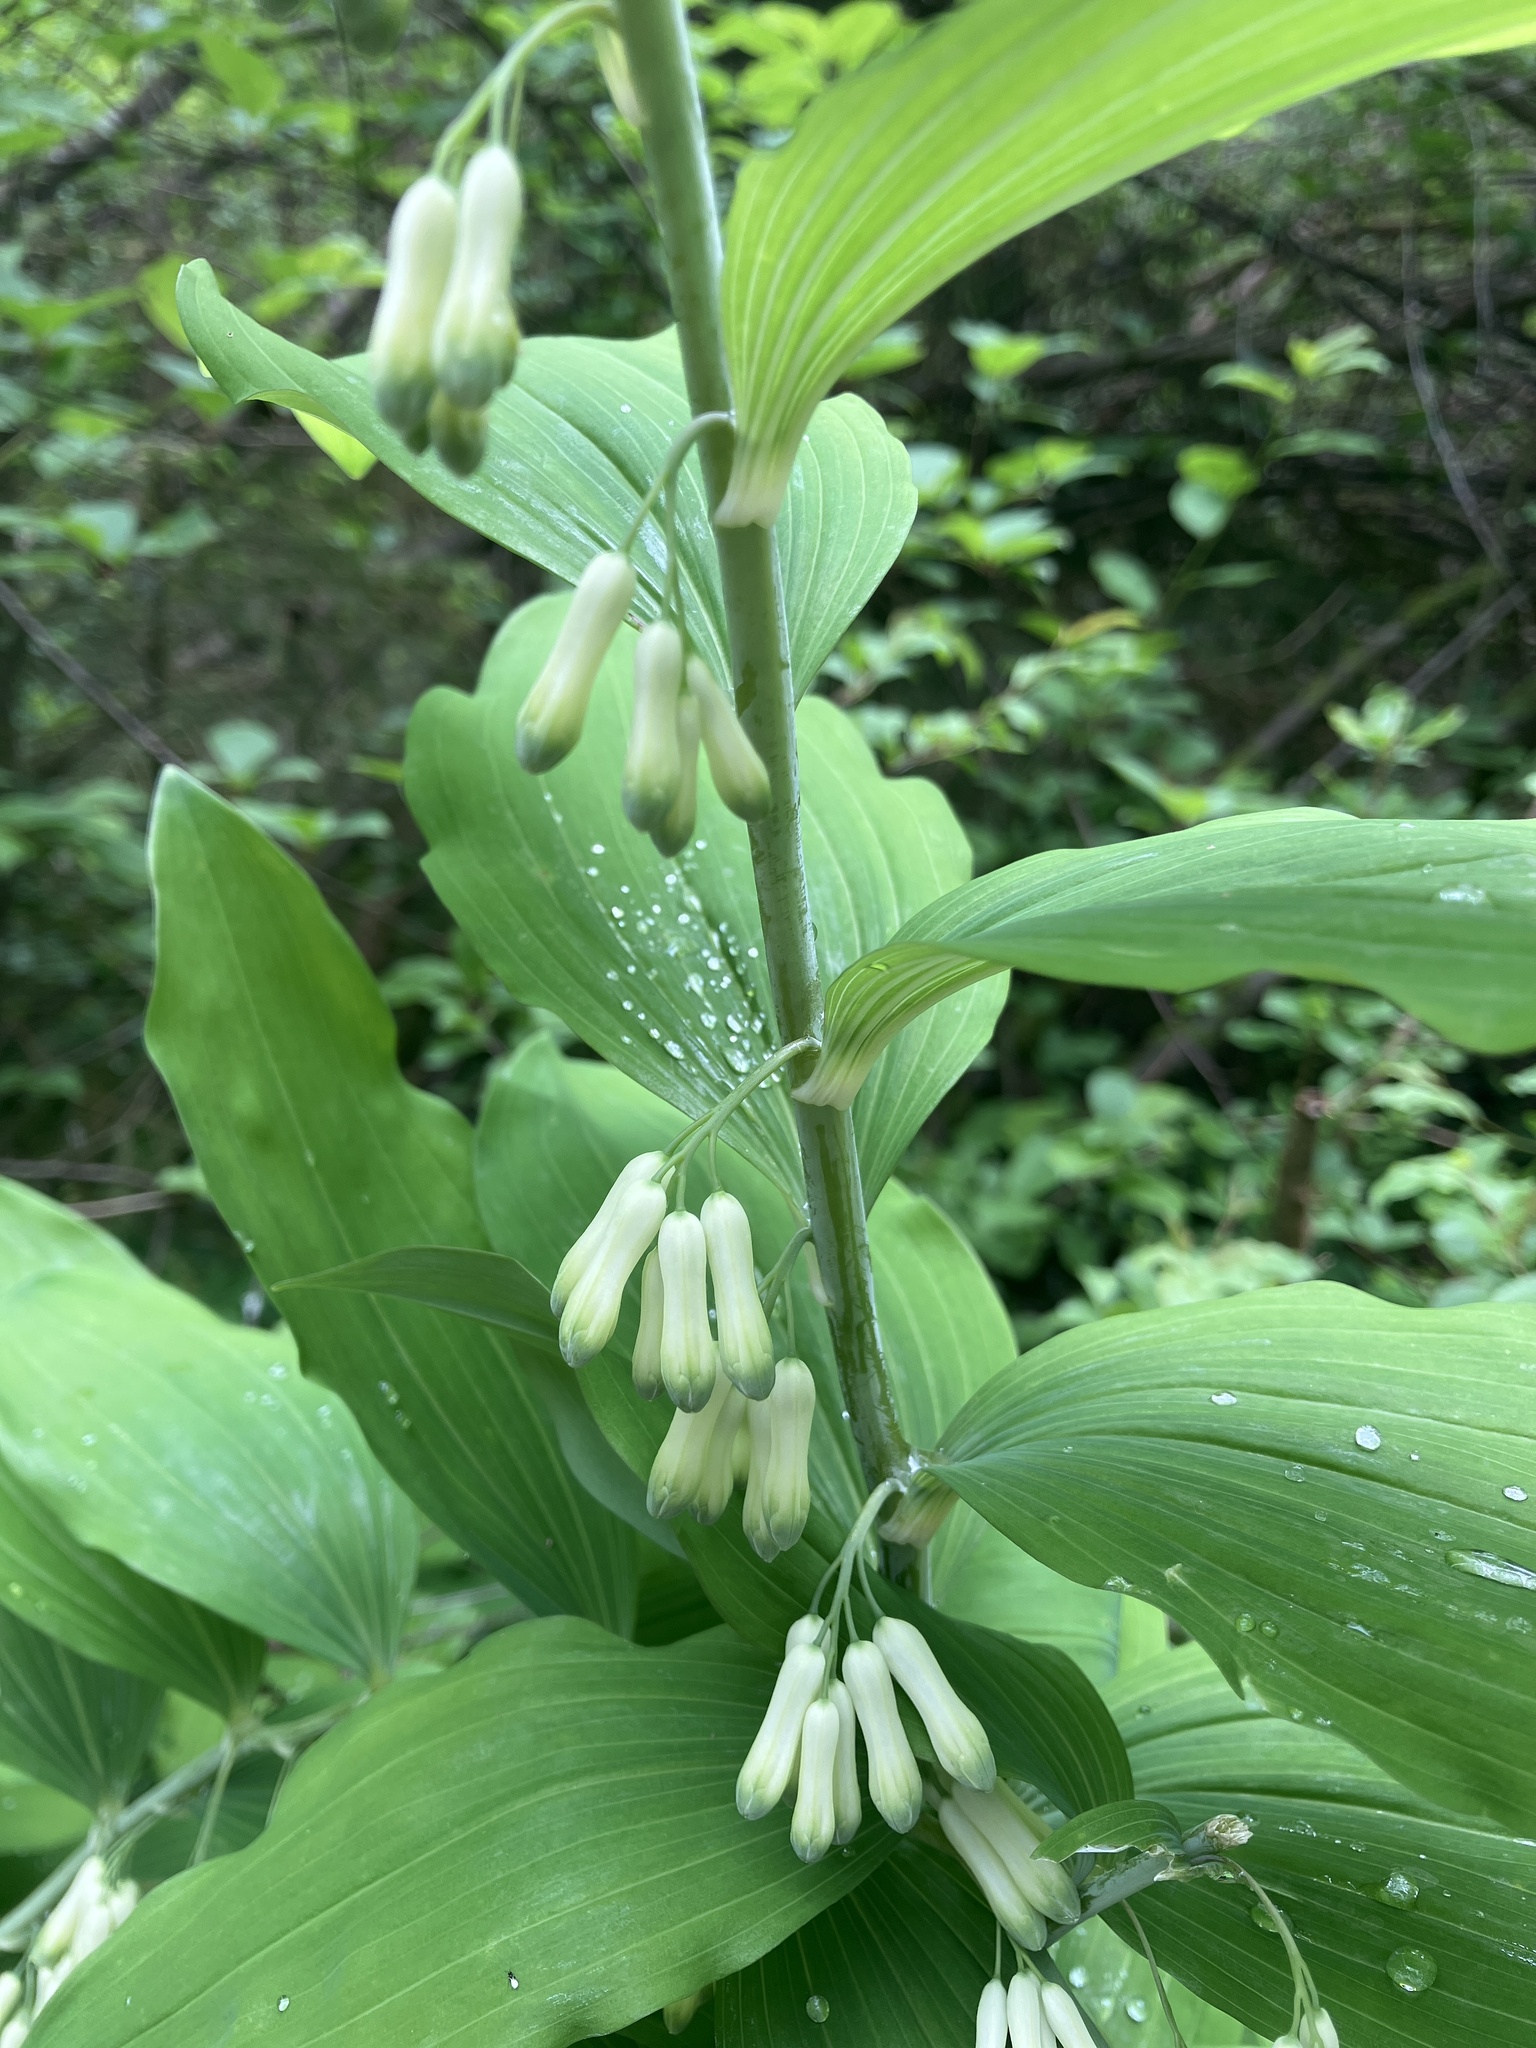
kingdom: Plantae
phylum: Tracheophyta
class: Liliopsida
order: Asparagales
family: Asparagaceae
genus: Polygonatum
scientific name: Polygonatum multiflorum
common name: Solomon's-seal
